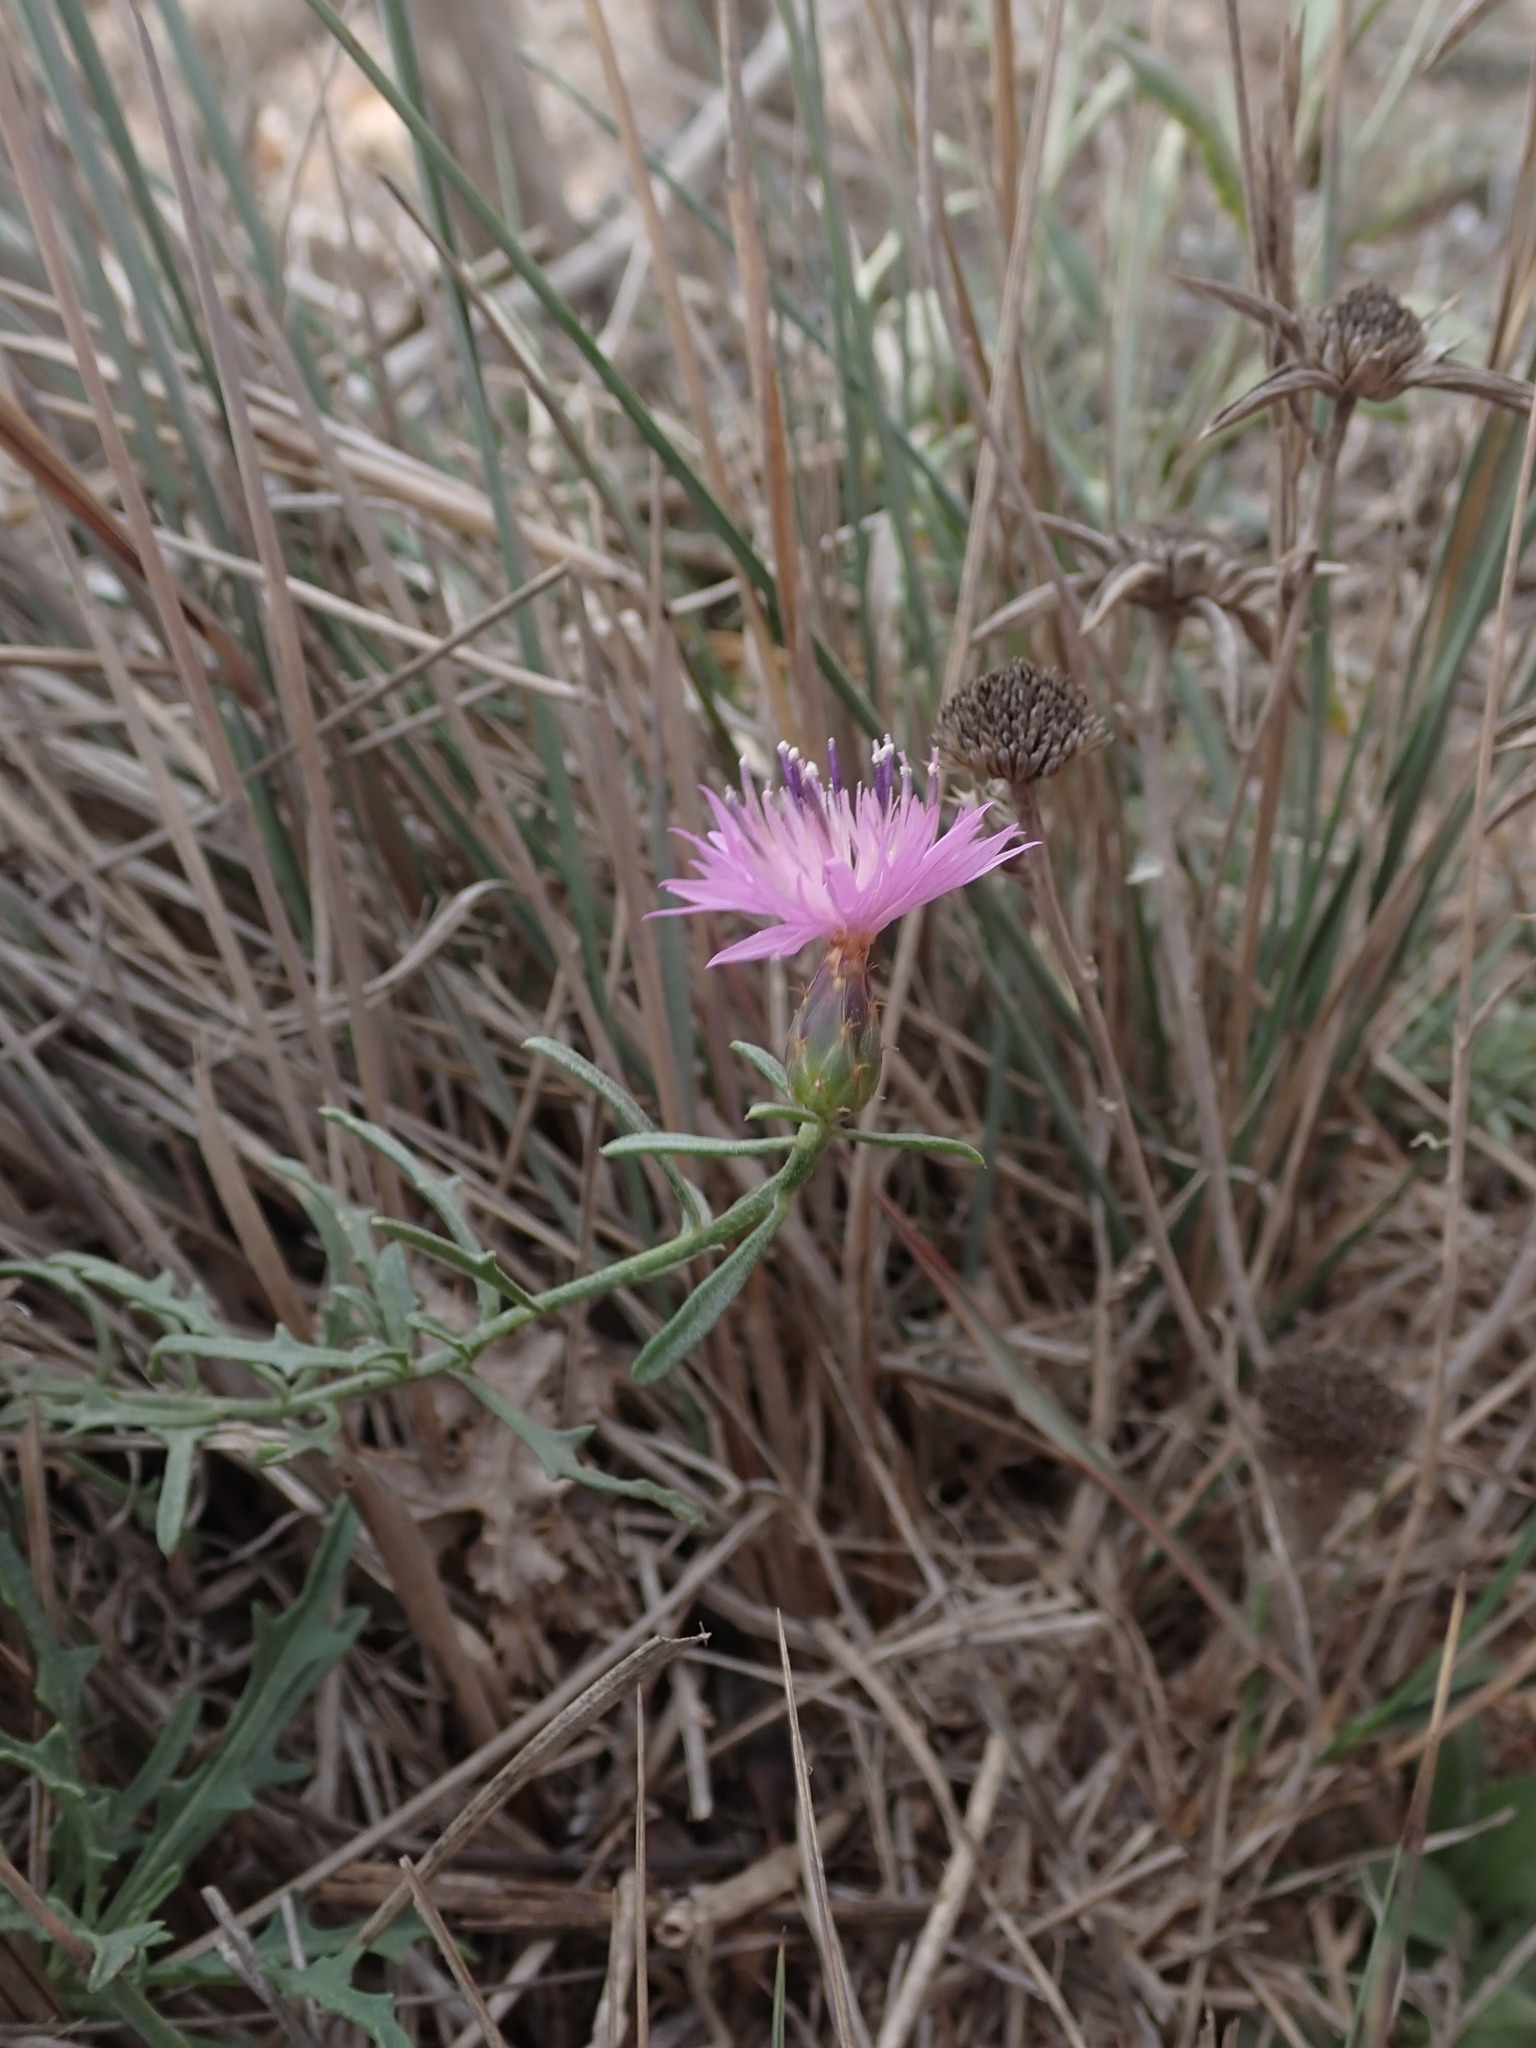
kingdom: Plantae
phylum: Tracheophyta
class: Magnoliopsida
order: Asterales
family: Asteraceae
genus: Centaurea
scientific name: Centaurea aspera
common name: Rough star-thistle
